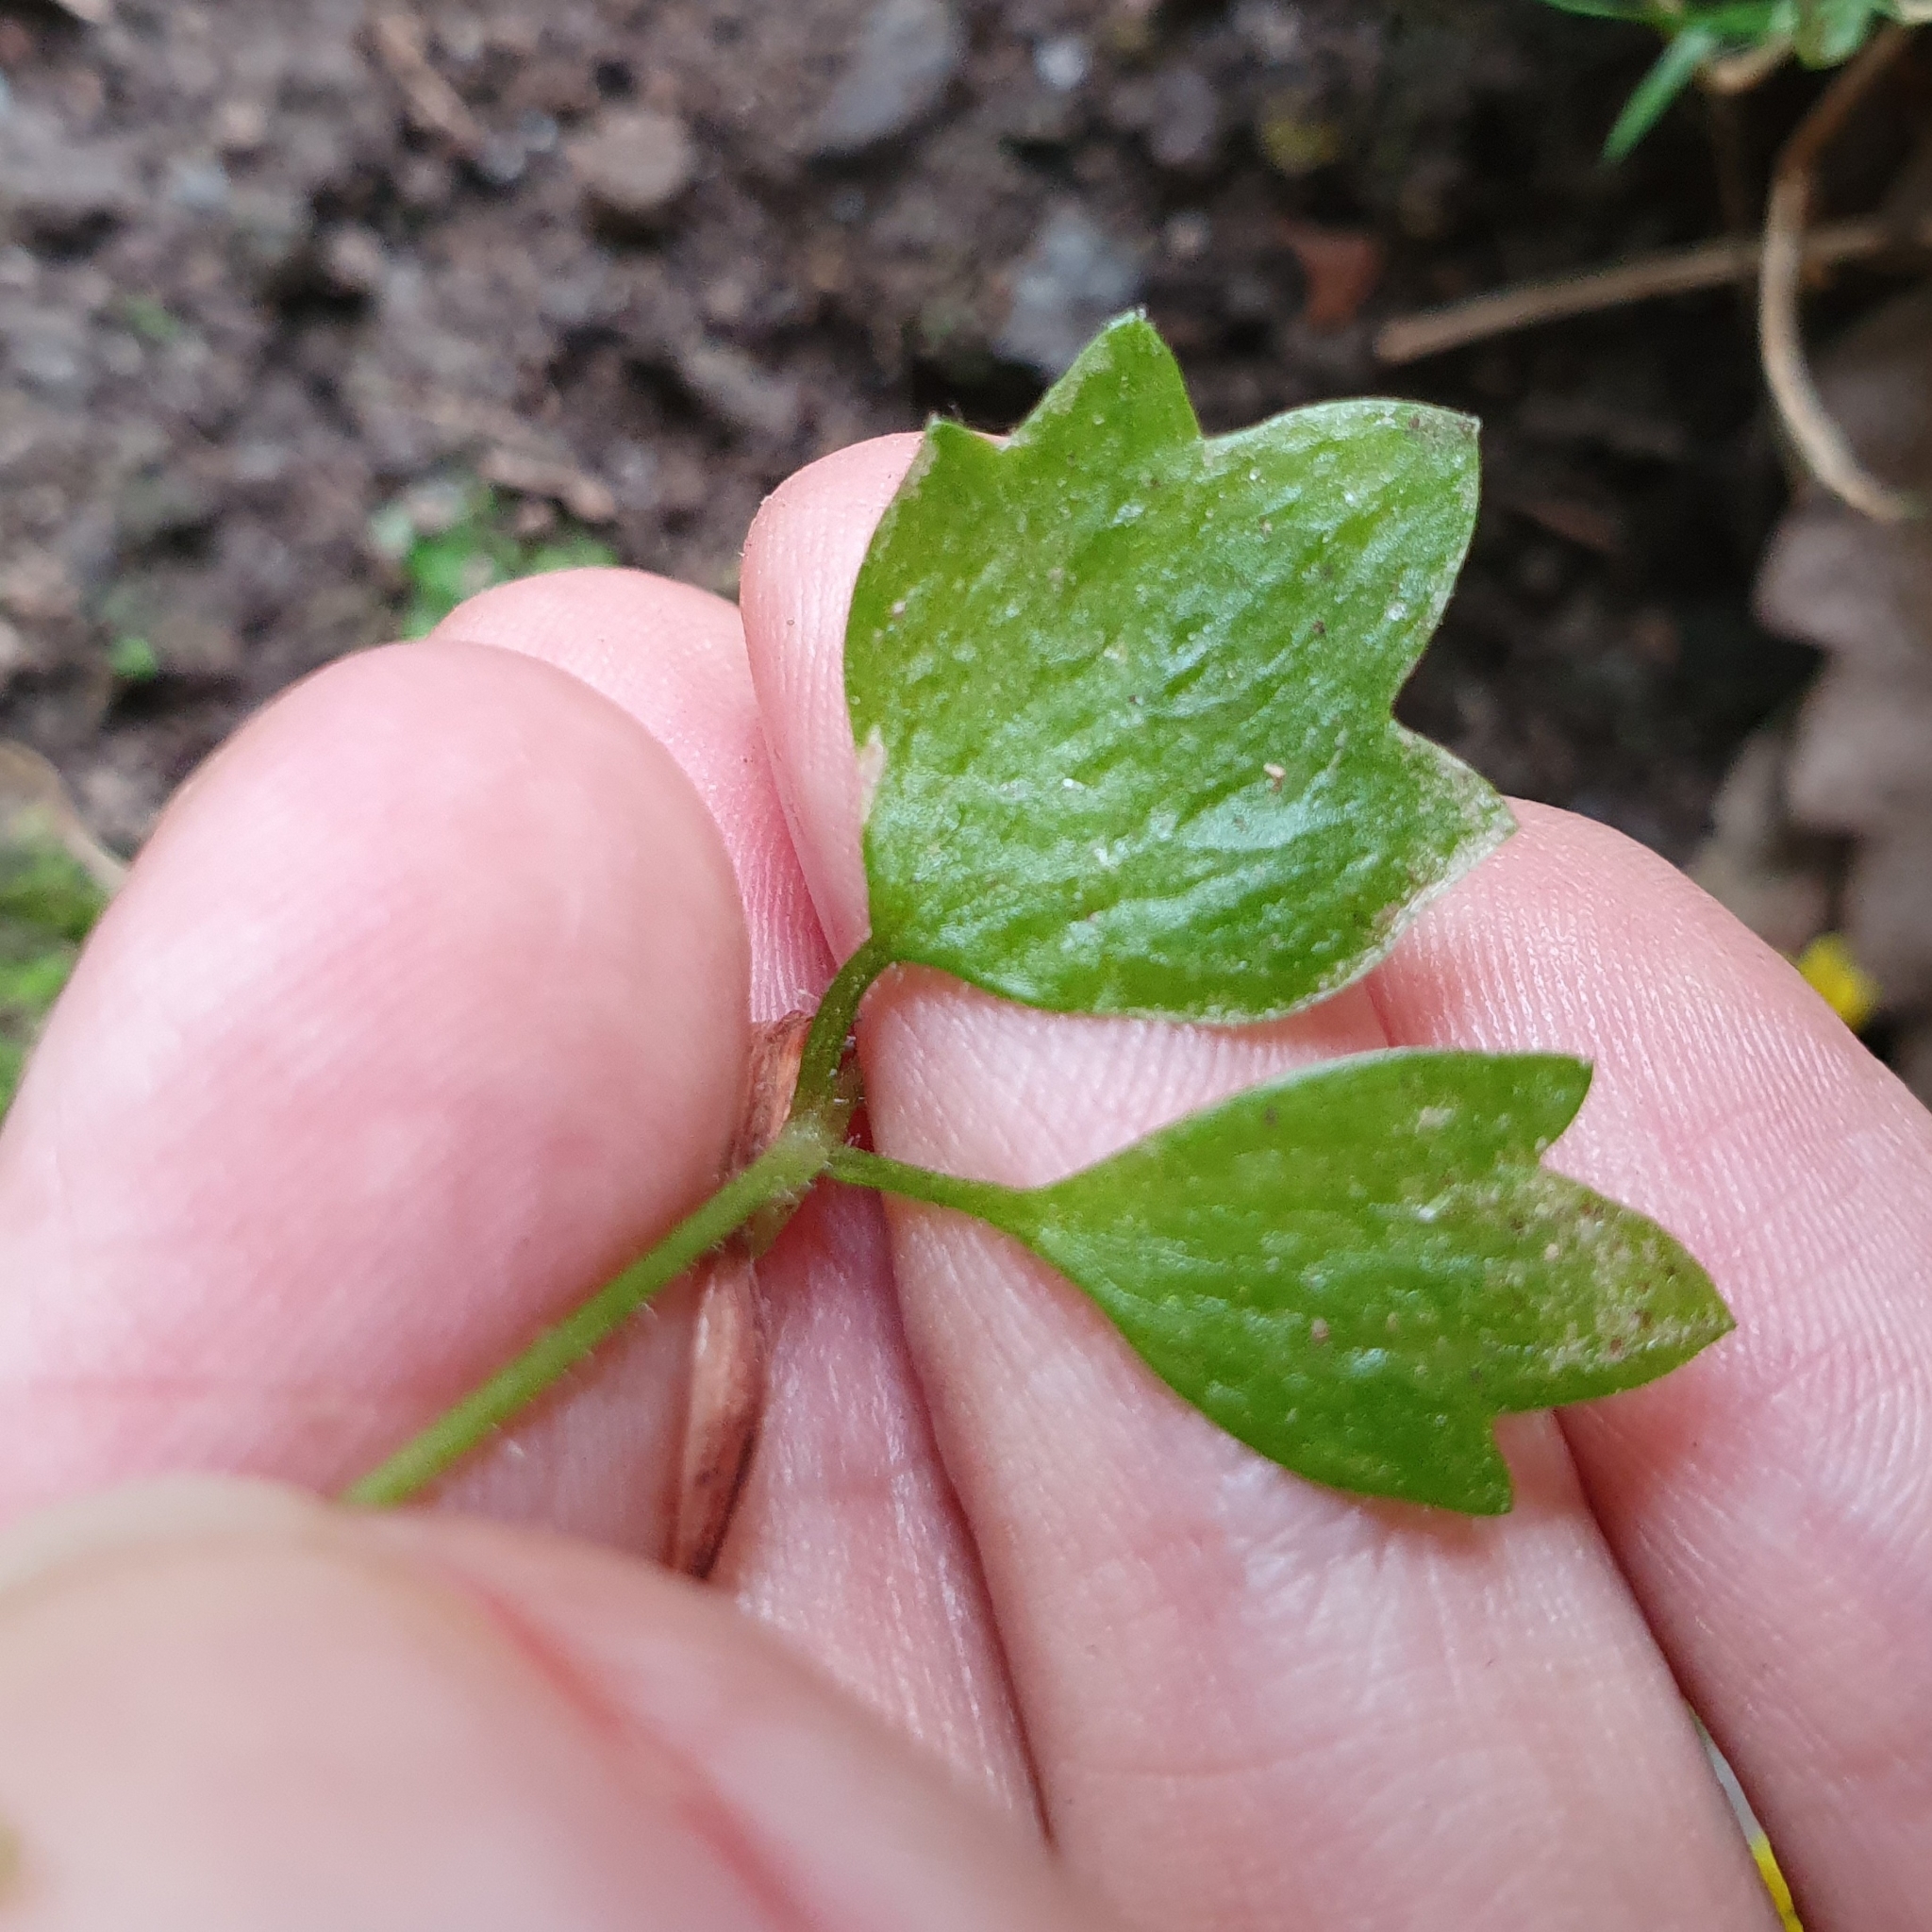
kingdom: Plantae
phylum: Tracheophyta
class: Magnoliopsida
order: Saxifragales
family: Saxifragaceae
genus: Saxifraga
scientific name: Saxifraga cymbalaria
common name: Celandine saxifrage
